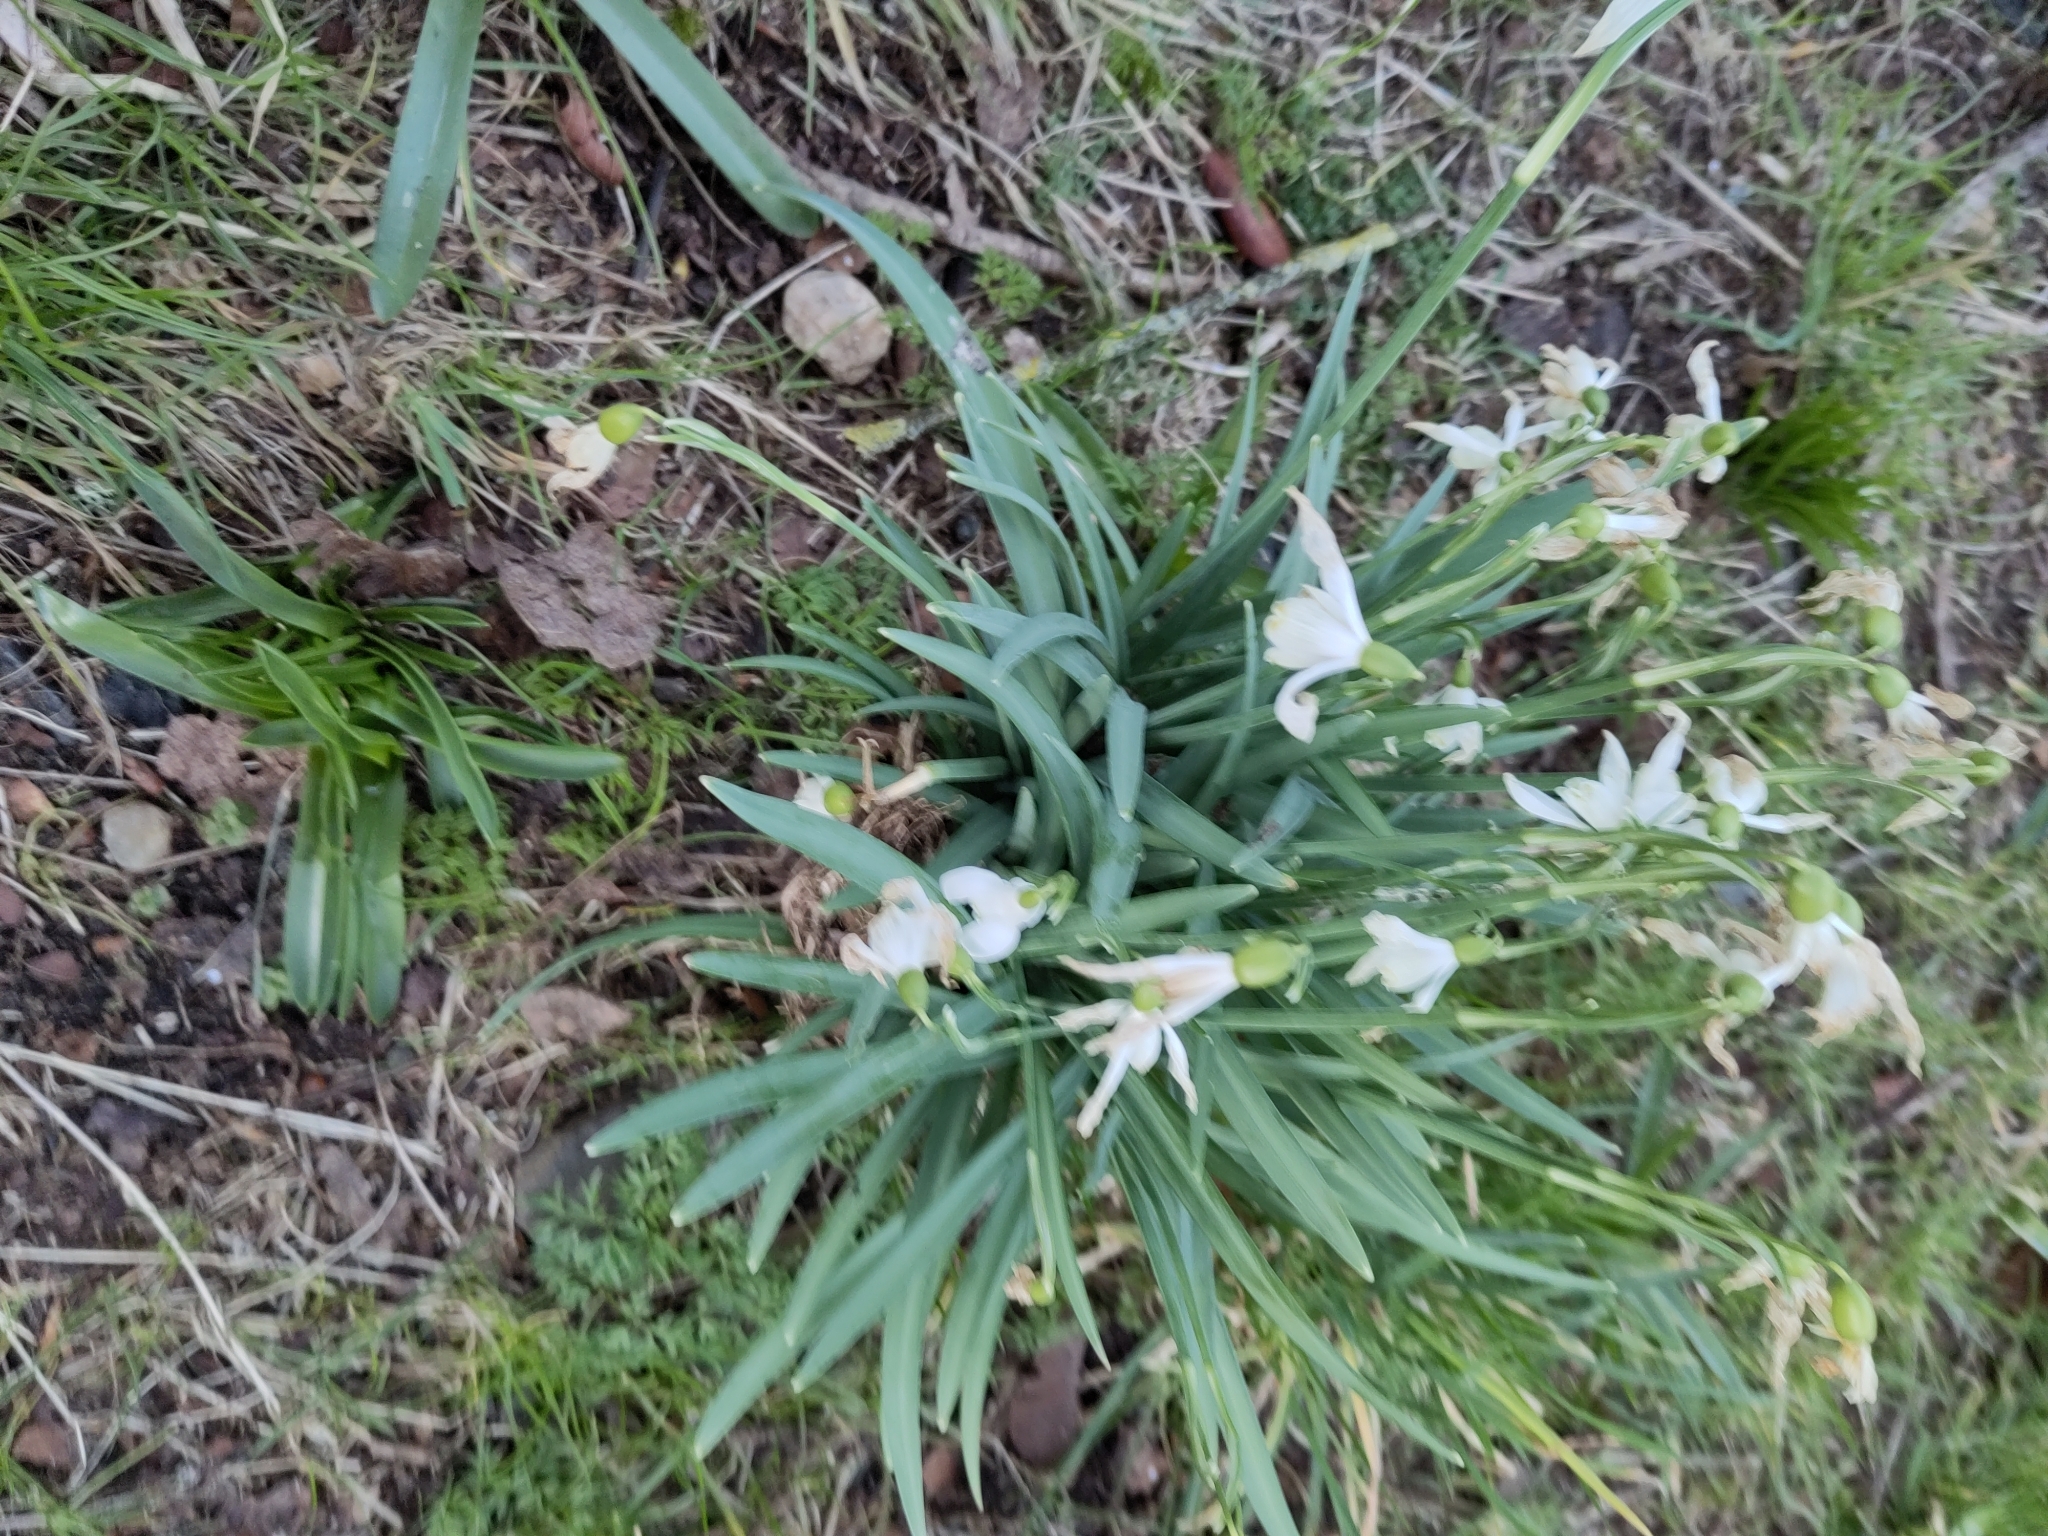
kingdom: Plantae
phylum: Tracheophyta
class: Liliopsida
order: Asparagales
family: Amaryllidaceae
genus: Galanthus
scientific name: Galanthus nivalis
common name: Snowdrop
